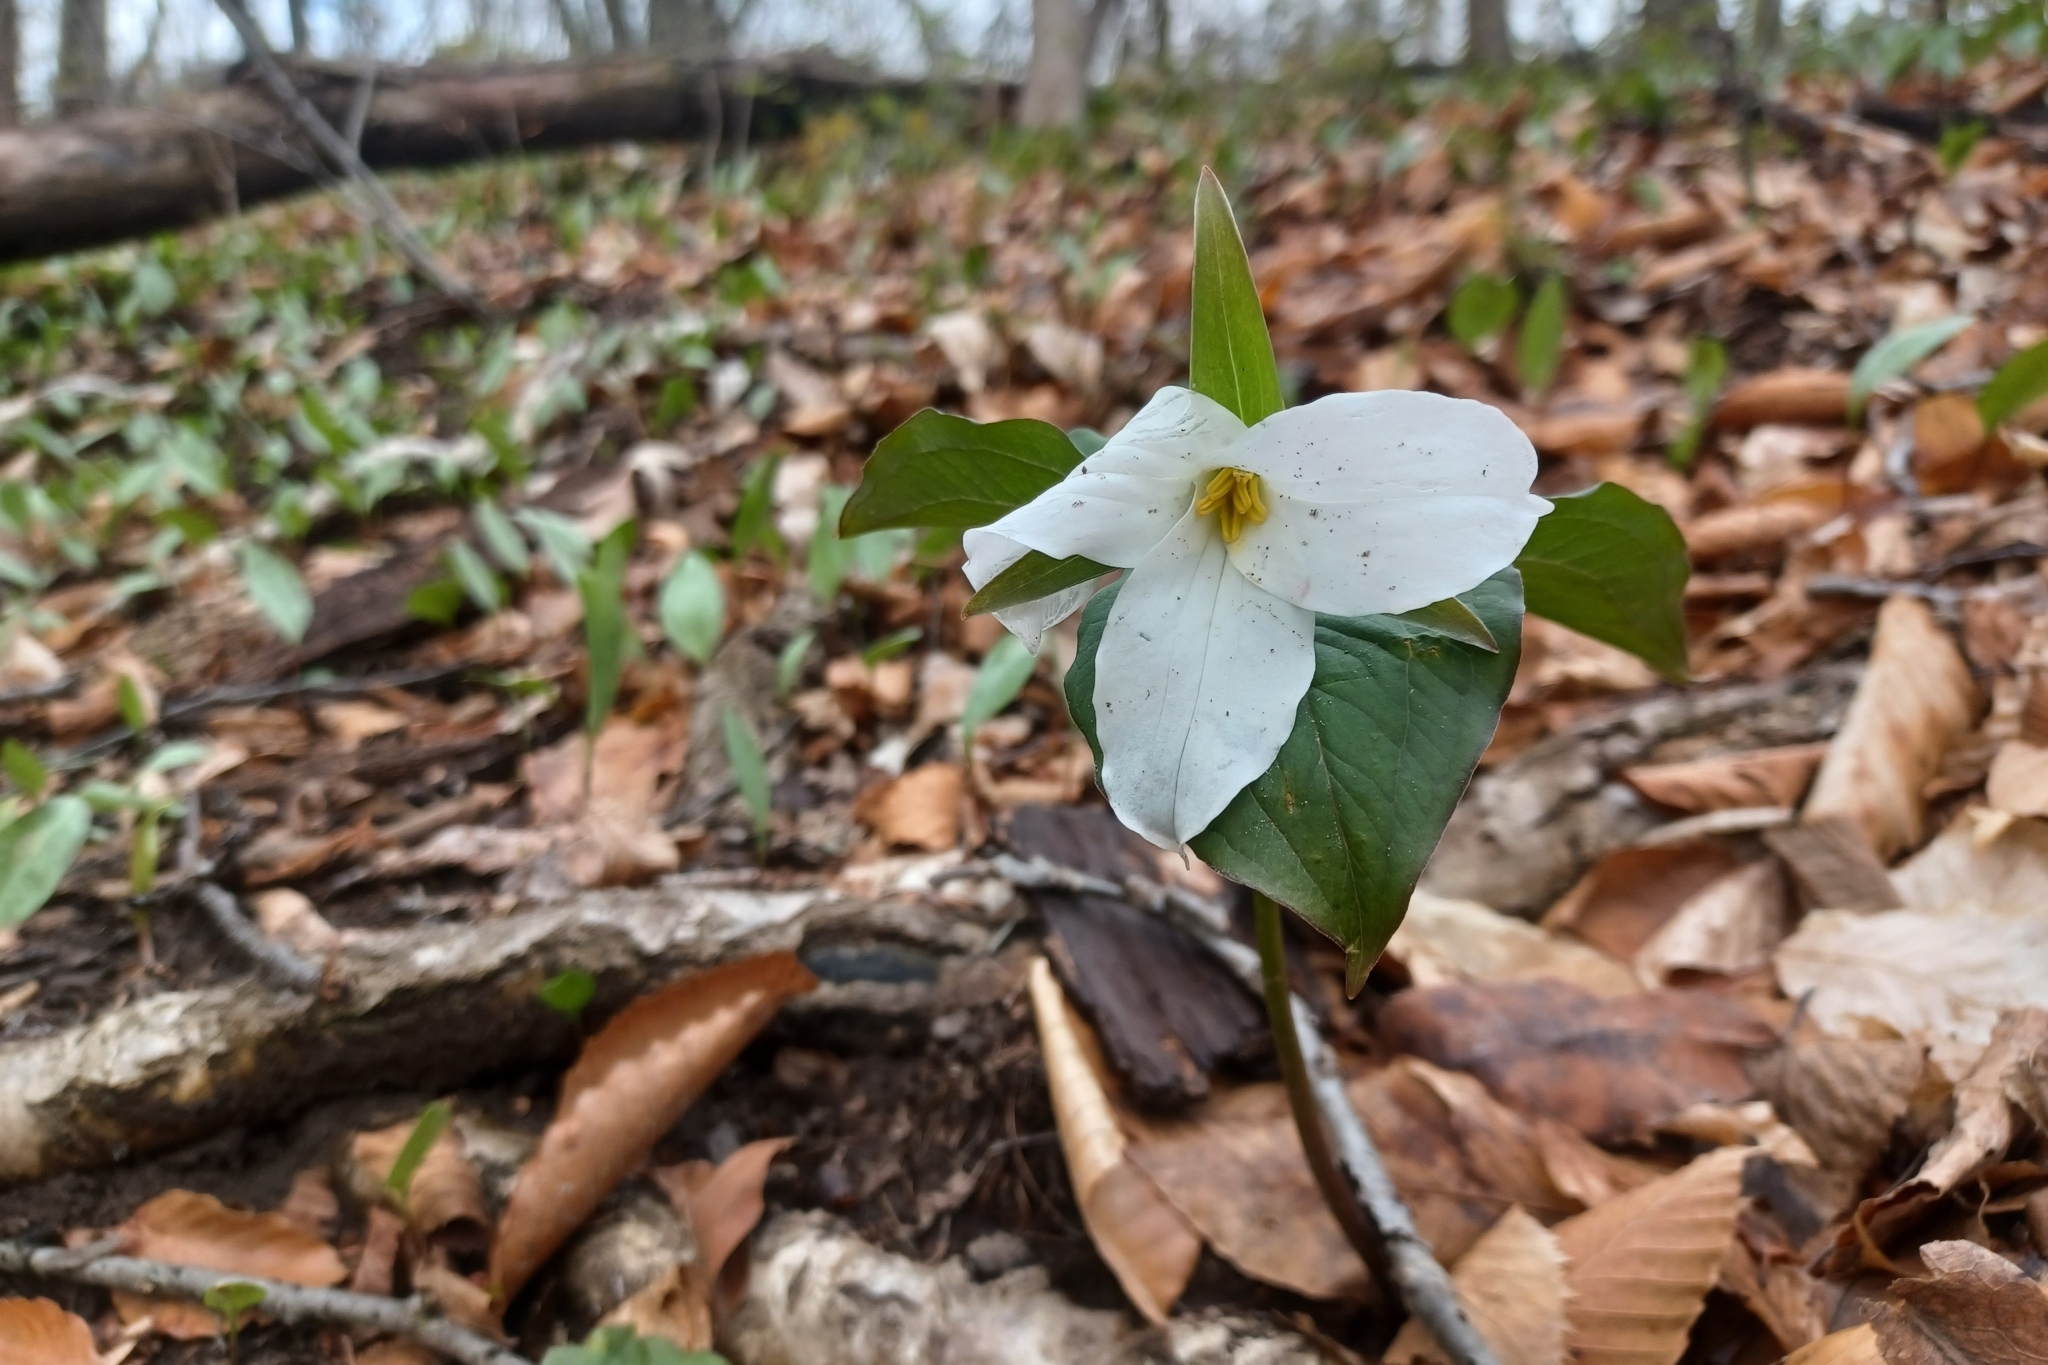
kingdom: Plantae
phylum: Tracheophyta
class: Liliopsida
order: Liliales
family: Melanthiaceae
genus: Trillium
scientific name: Trillium grandiflorum
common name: Great white trillium
